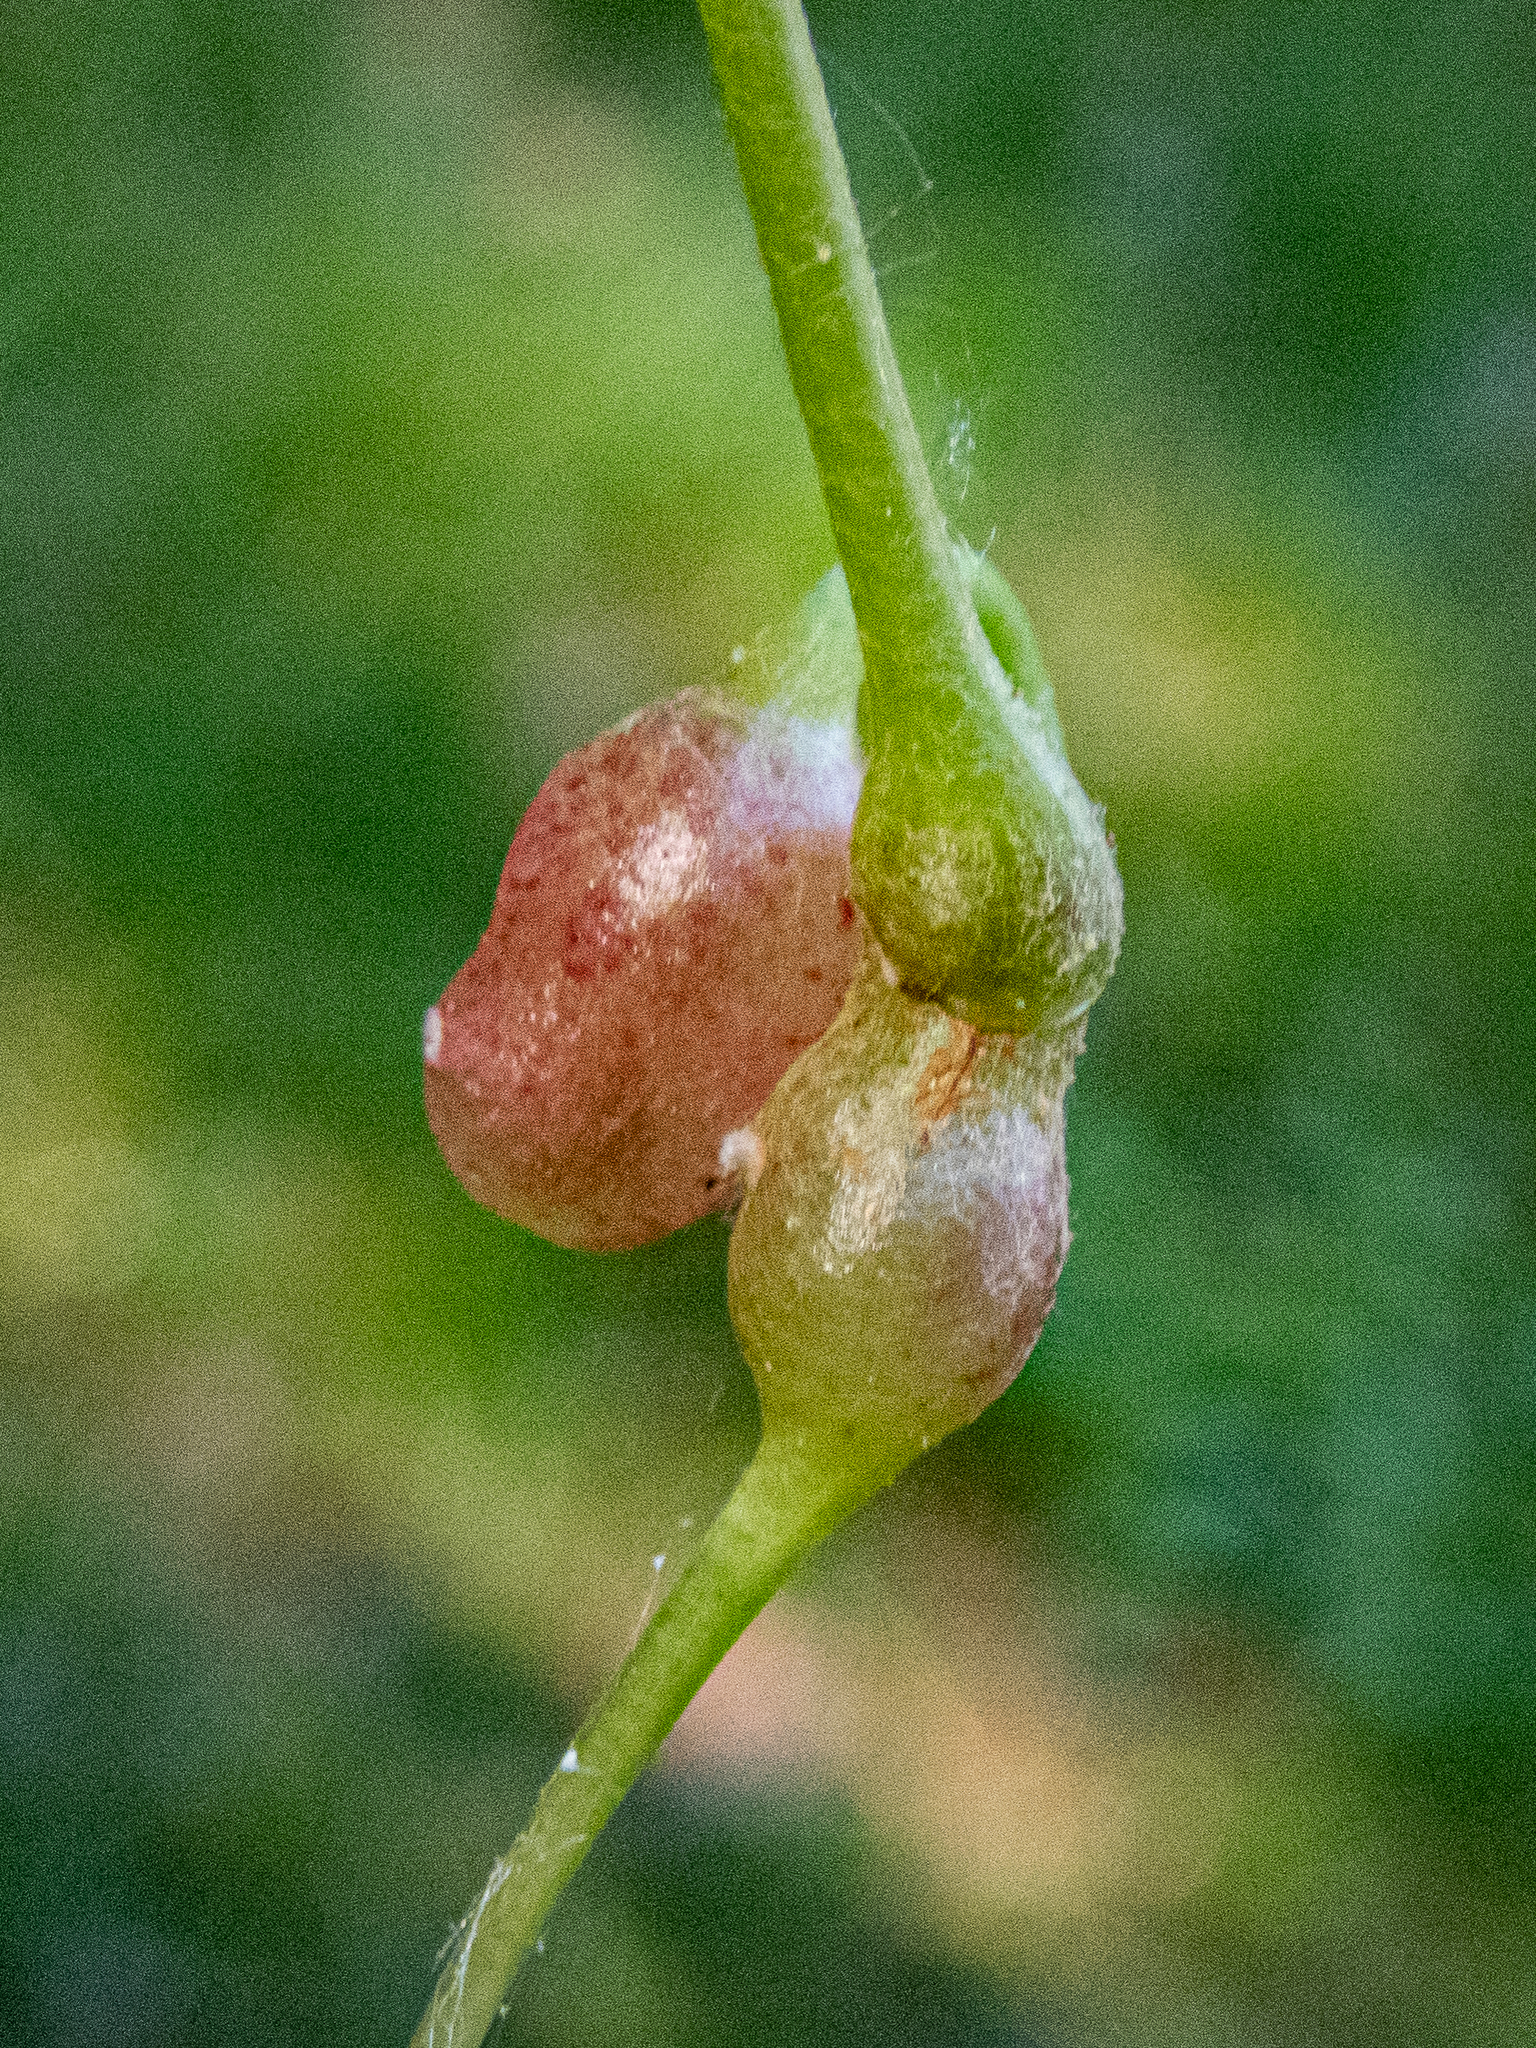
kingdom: Animalia
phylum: Arthropoda
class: Insecta
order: Diptera
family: Cecidomyiidae
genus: Vitisiella
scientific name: Vitisiella brevicauda
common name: Grape tumid gallmaker midge
